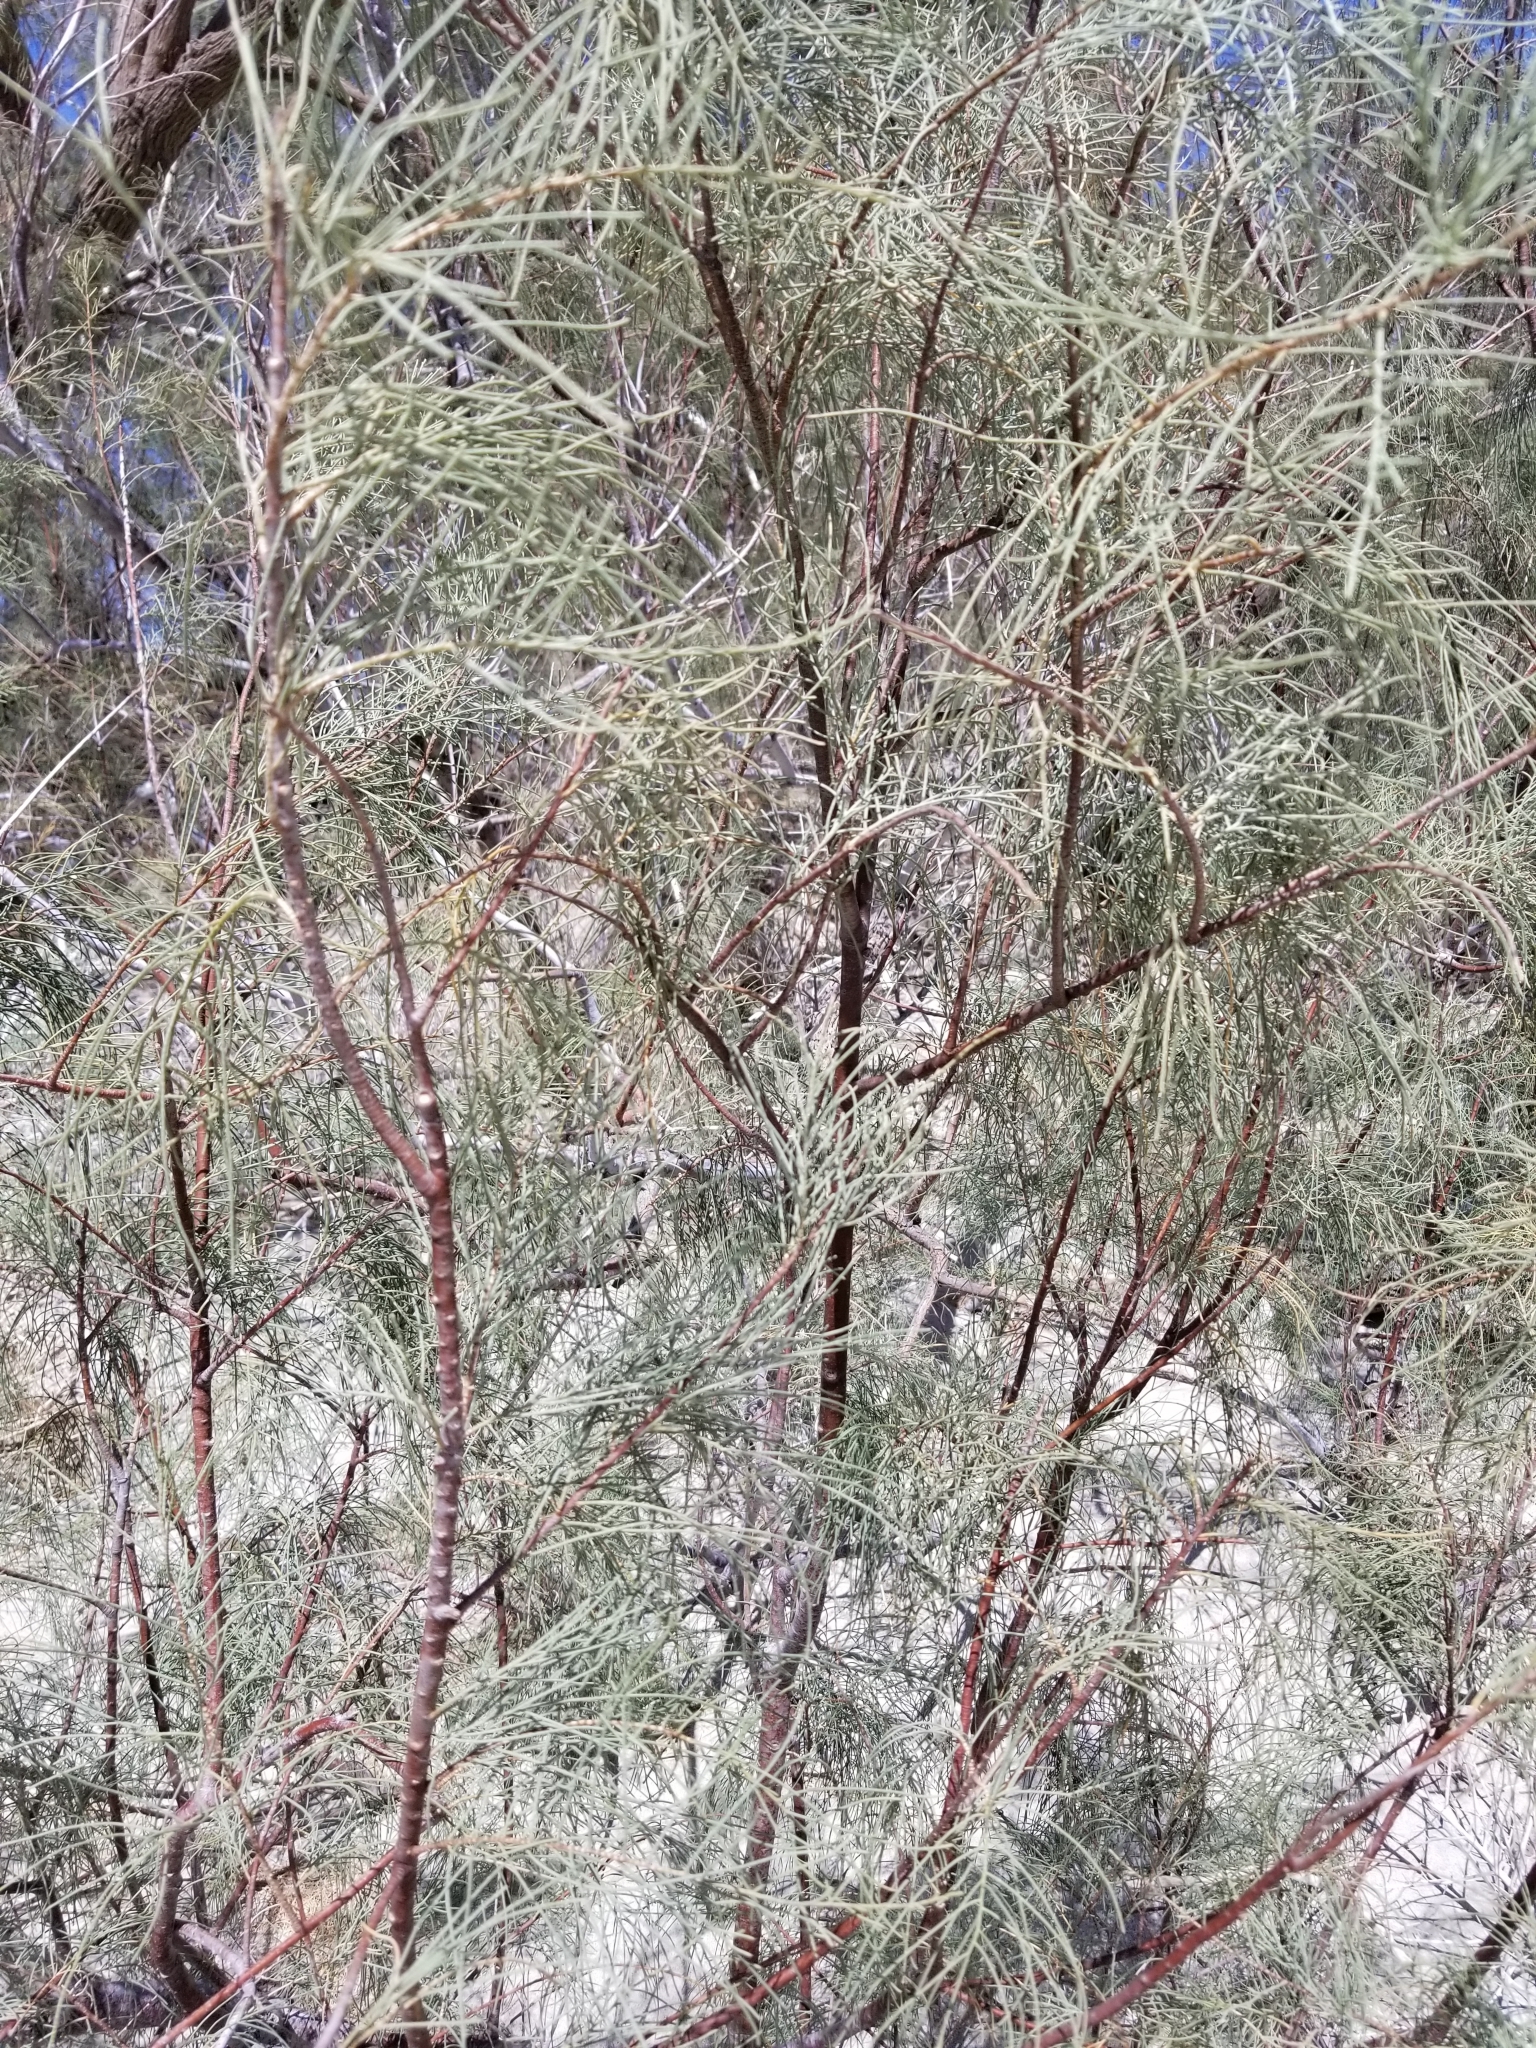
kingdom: Plantae
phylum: Tracheophyta
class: Magnoliopsida
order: Caryophyllales
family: Tamaricaceae
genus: Tamarix
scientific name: Tamarix aphylla
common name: Athel tamarisk
